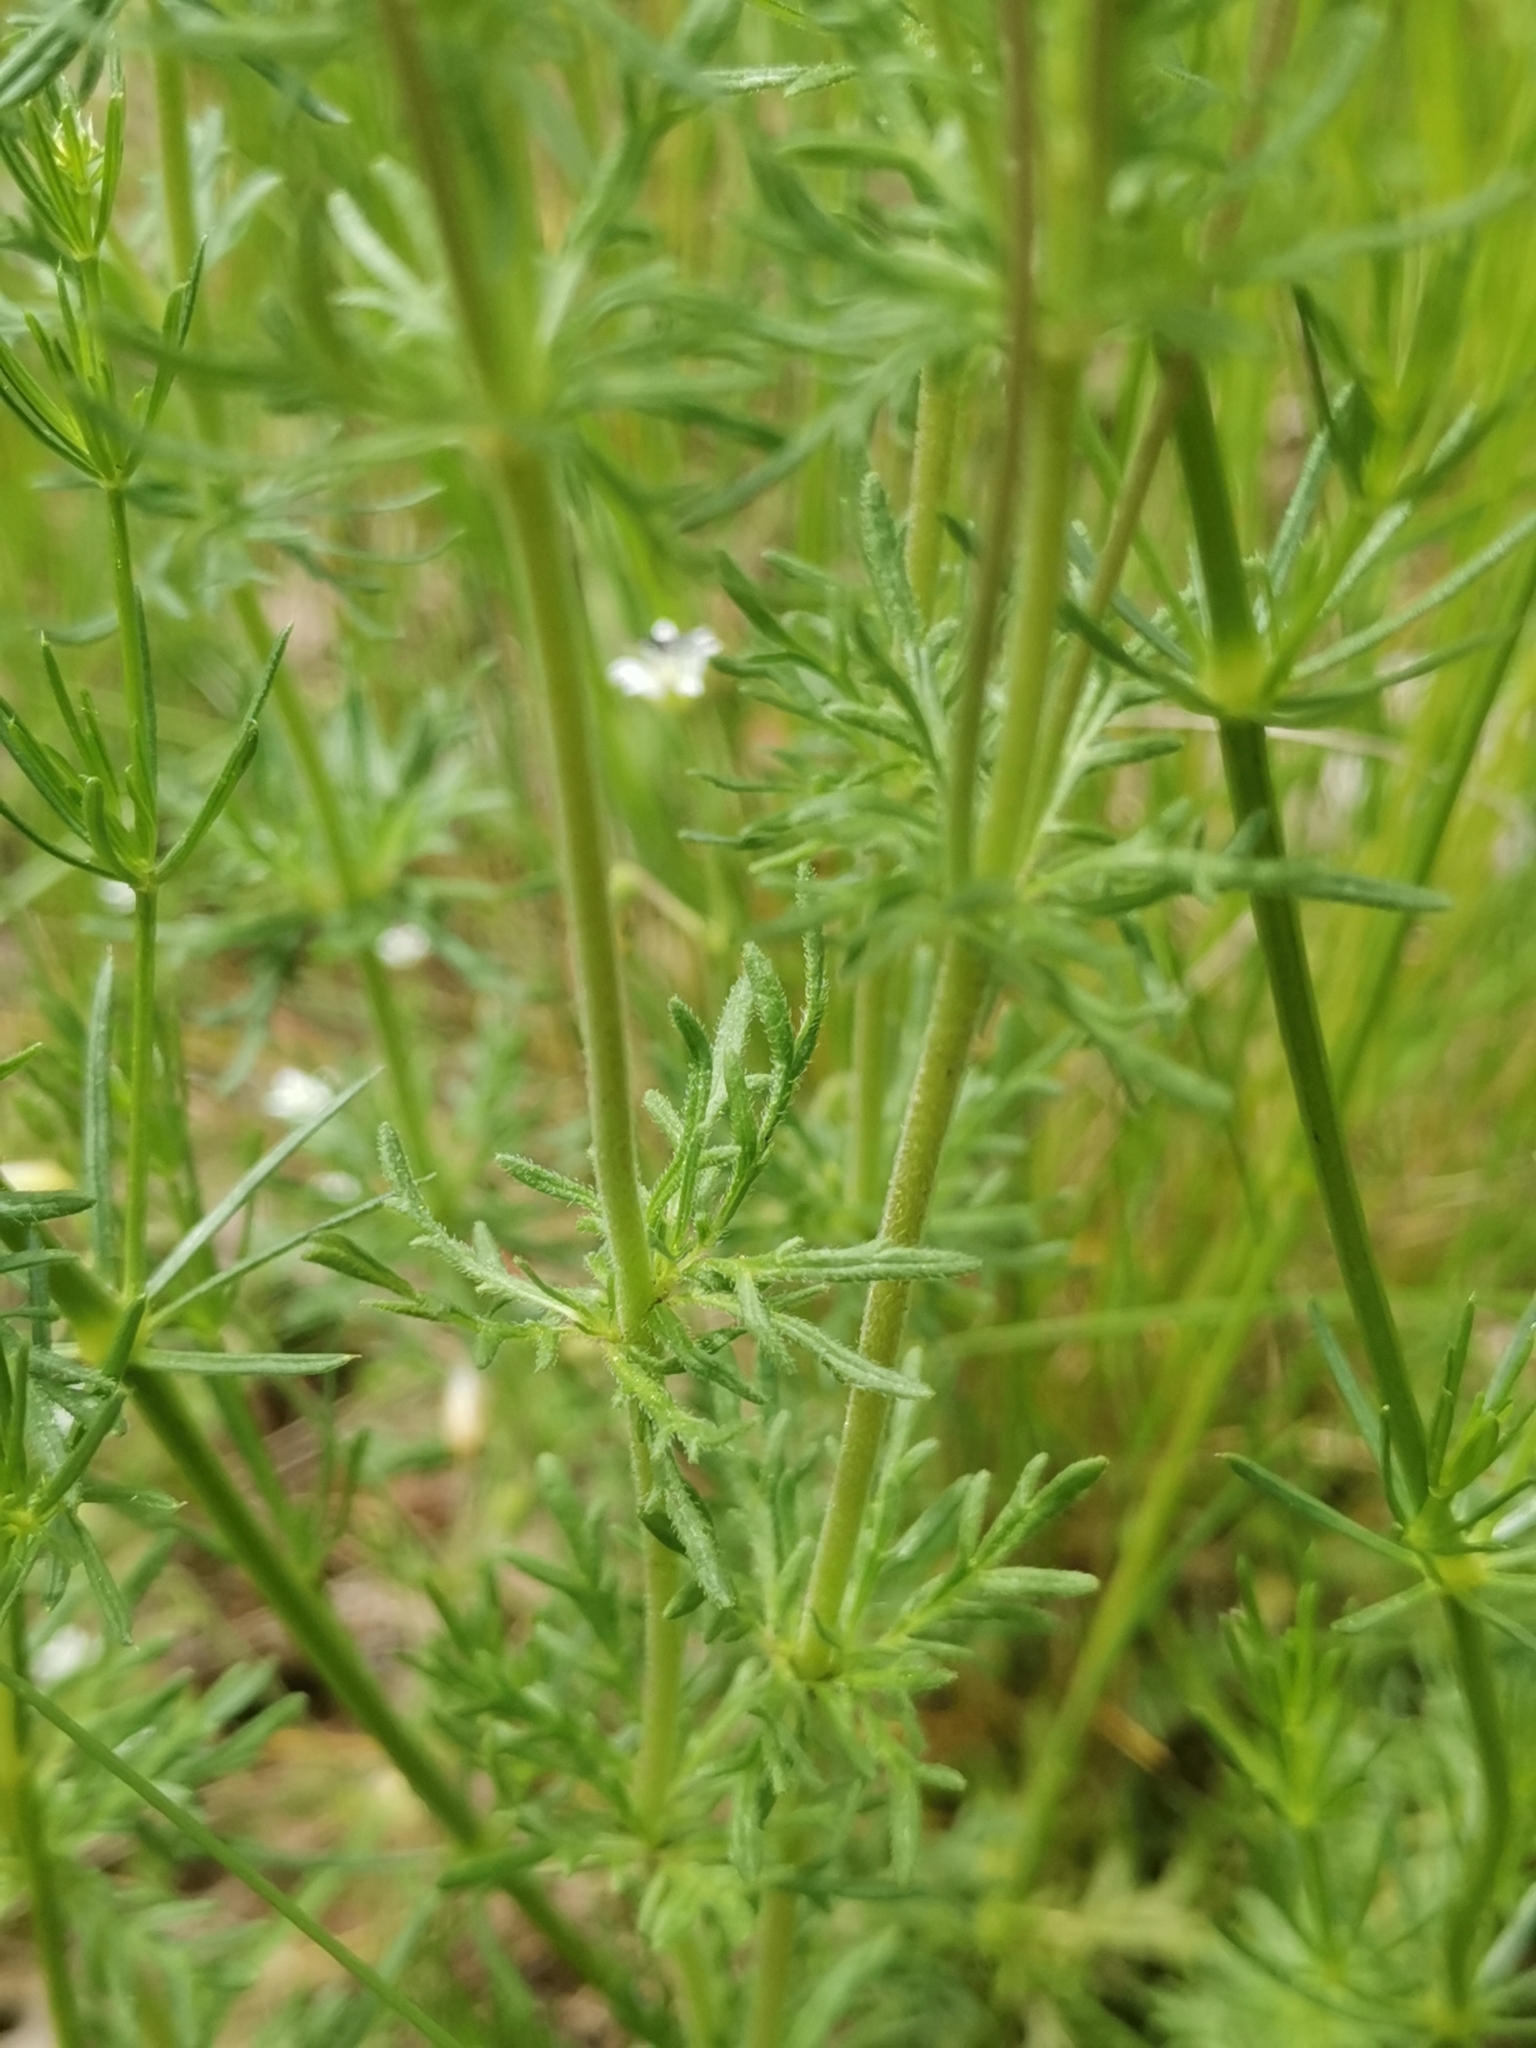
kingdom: Plantae
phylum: Tracheophyta
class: Magnoliopsida
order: Lamiales
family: Plantaginaceae
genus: Veronica
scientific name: Veronica austriaca
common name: Large speedwell
